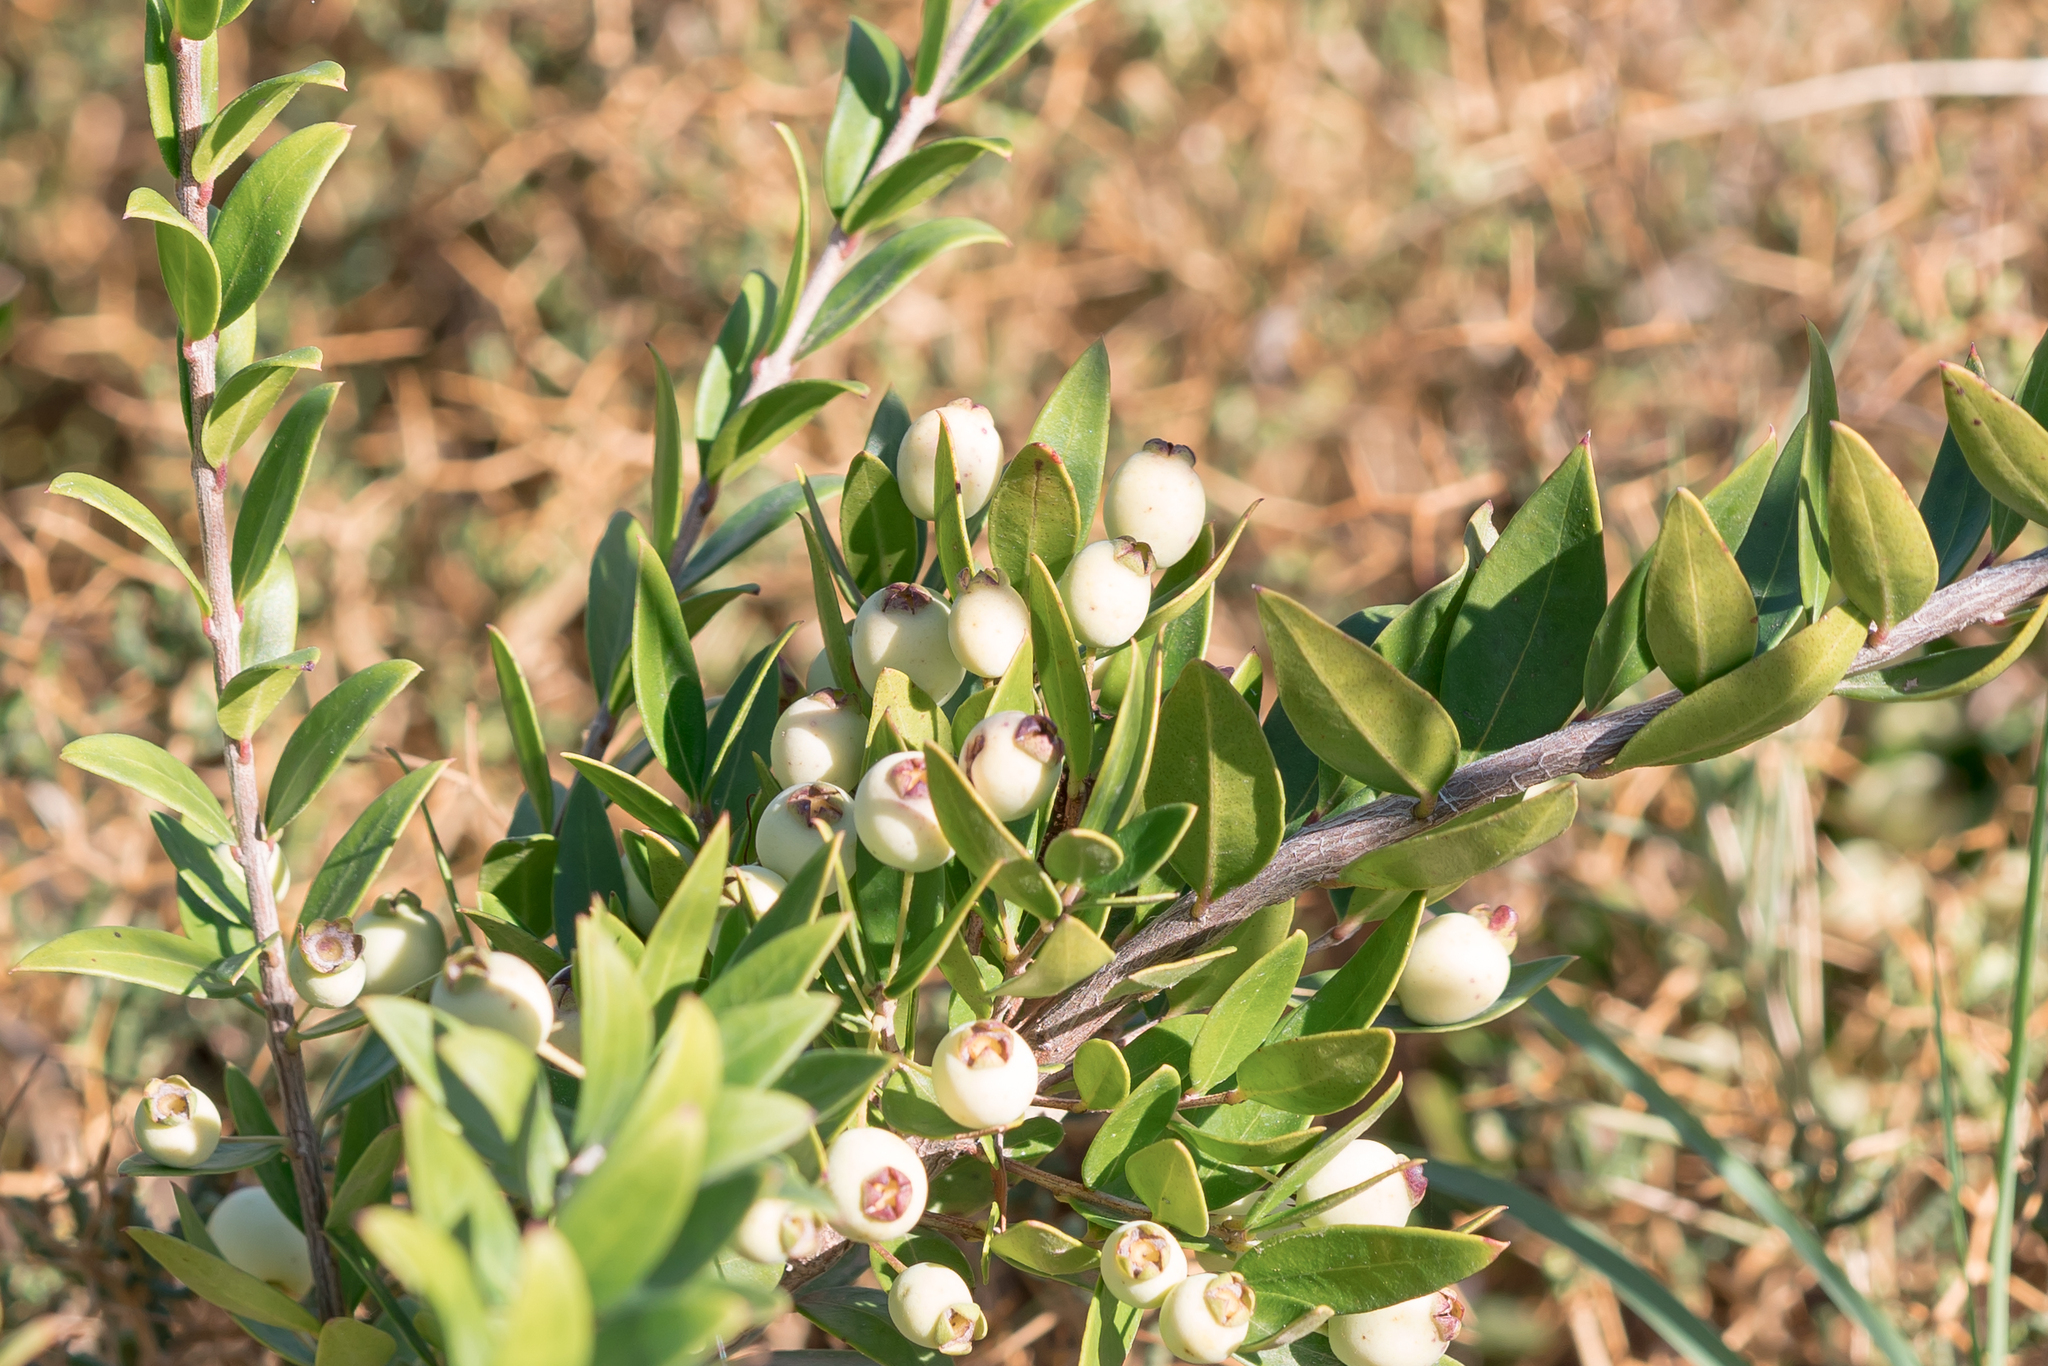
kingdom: Plantae
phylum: Tracheophyta
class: Magnoliopsida
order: Myrtales
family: Myrtaceae
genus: Myrtus
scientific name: Myrtus communis
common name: Myrtle
